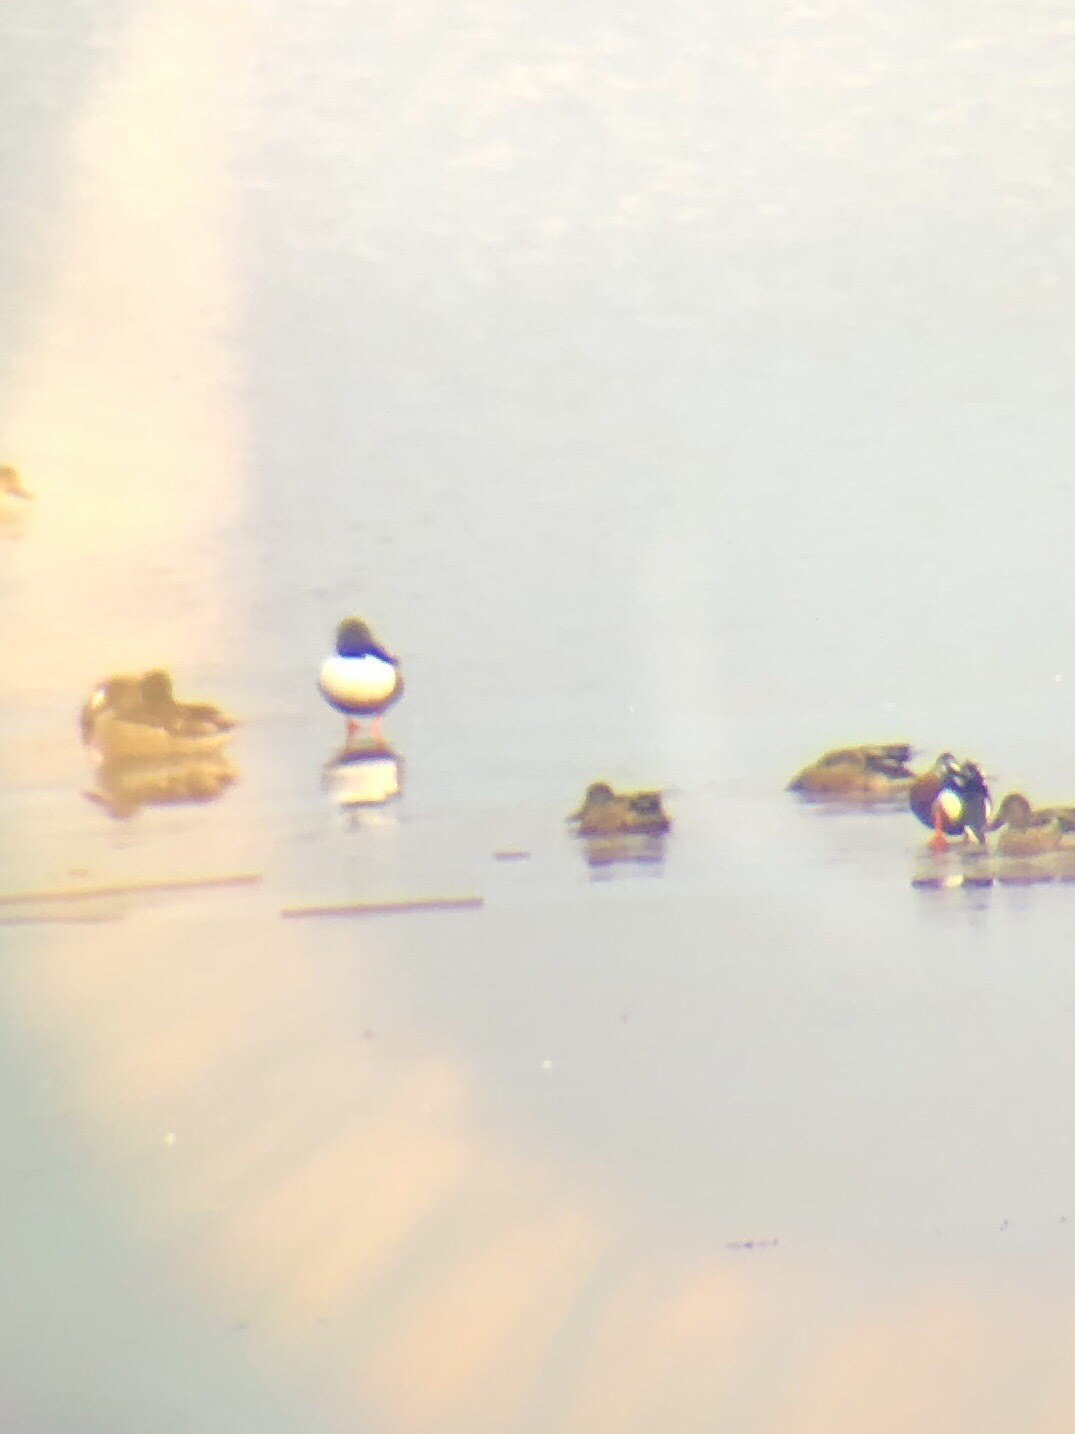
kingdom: Animalia
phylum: Chordata
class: Aves
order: Anseriformes
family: Anatidae
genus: Spatula
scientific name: Spatula clypeata
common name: Northern shoveler
